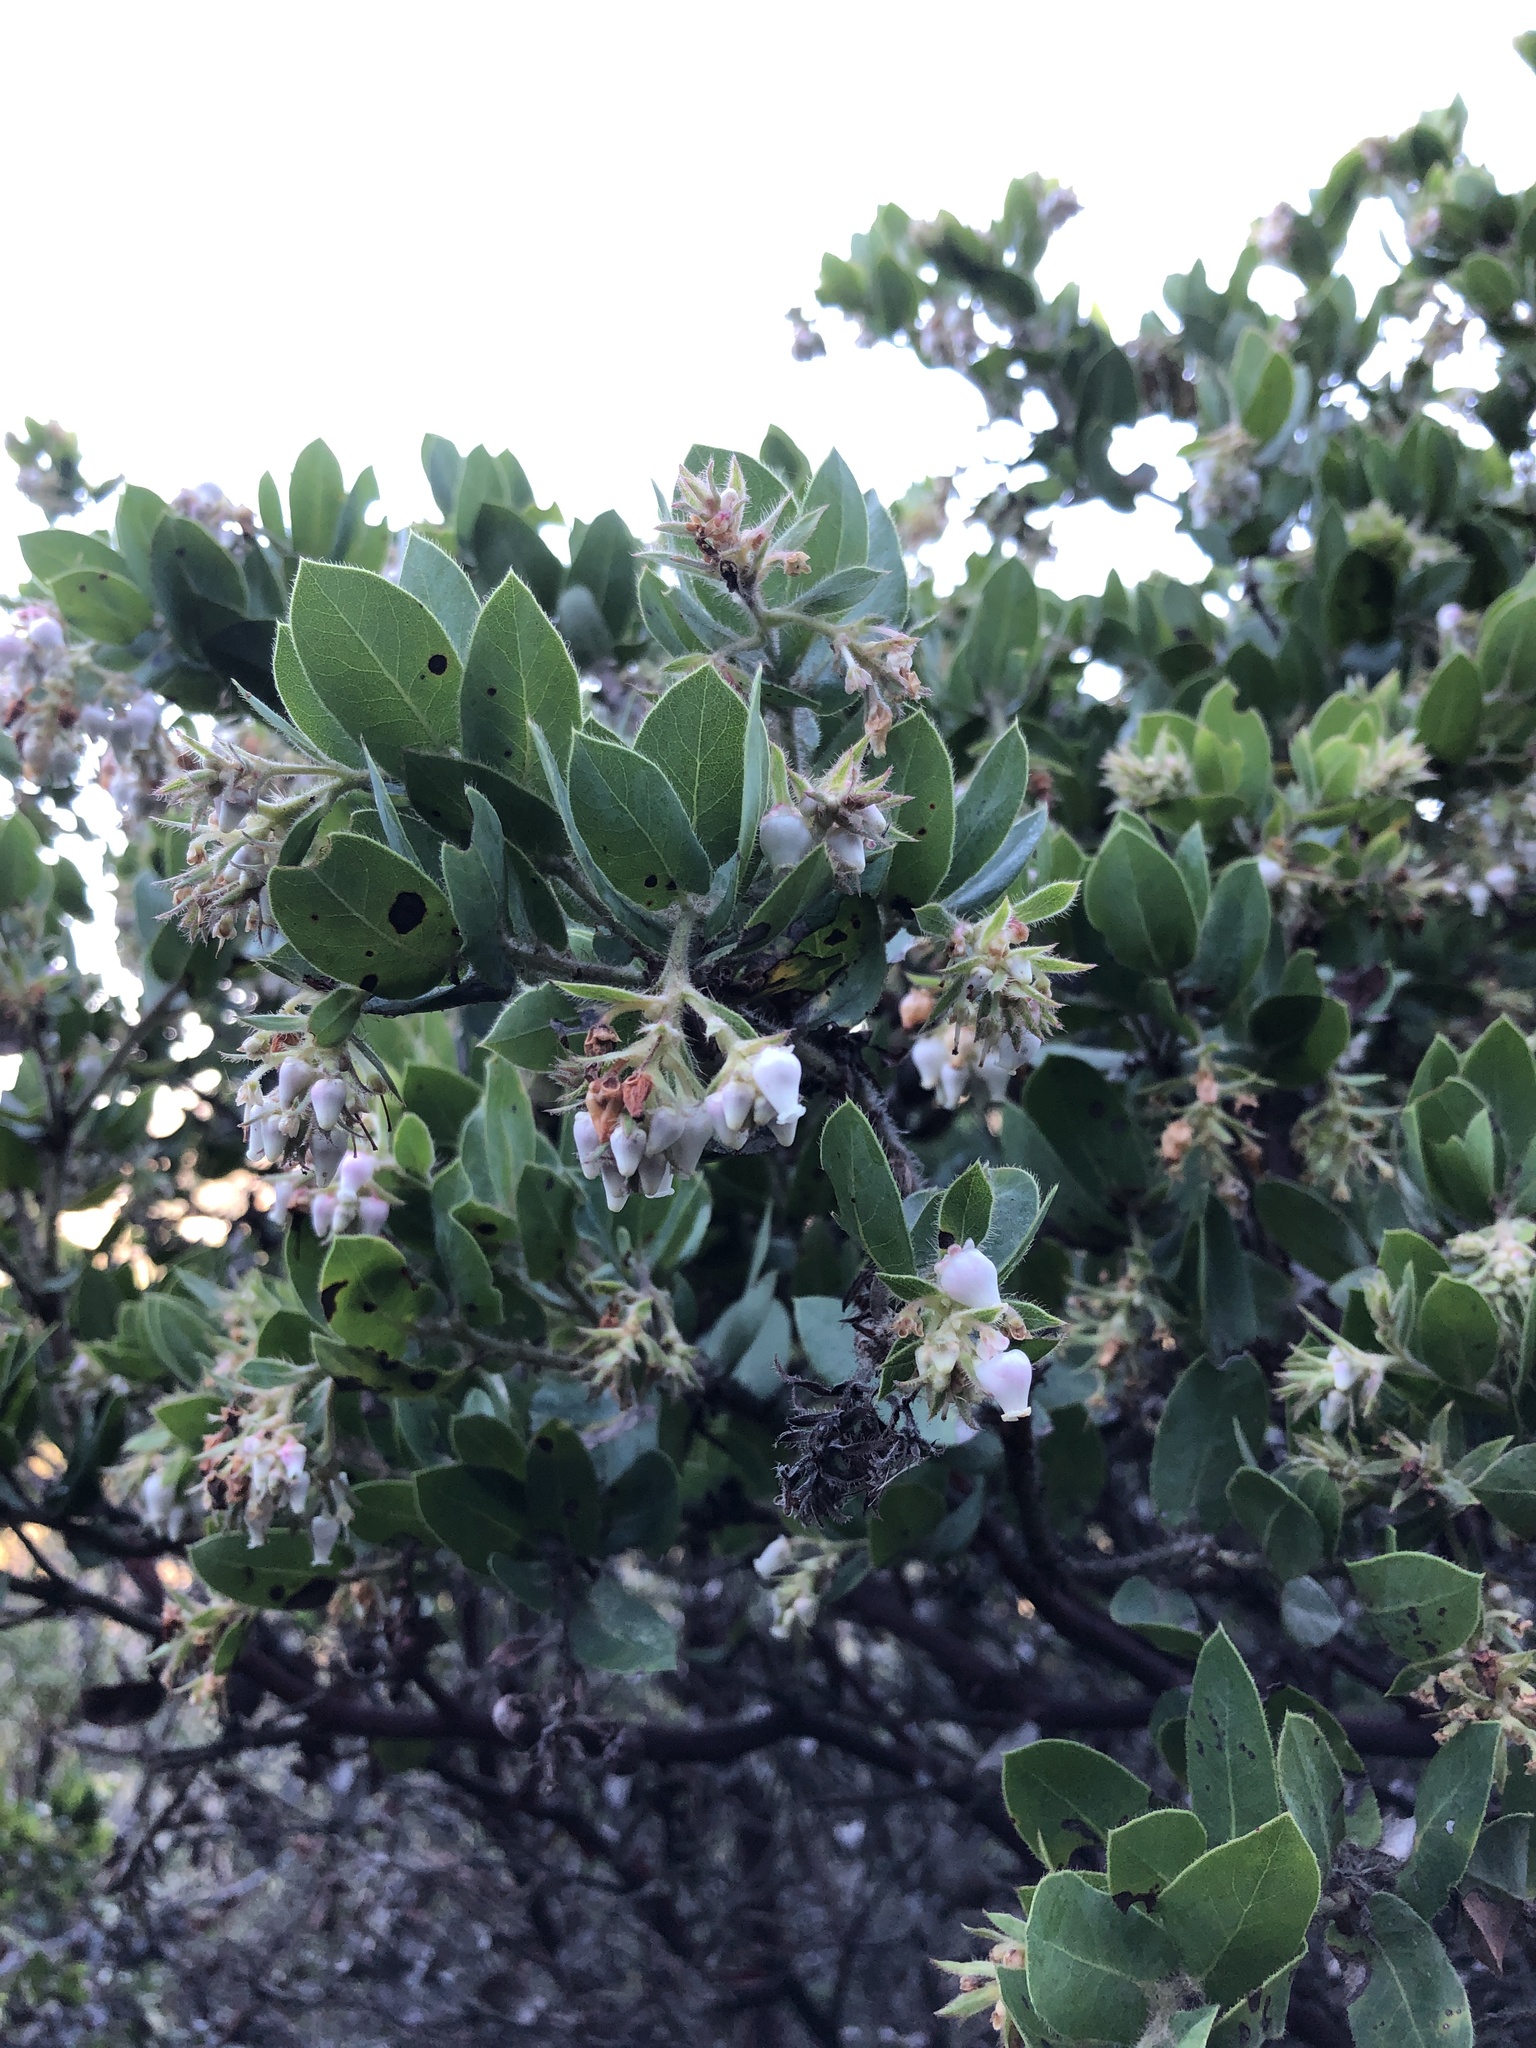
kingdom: Plantae
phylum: Tracheophyta
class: Magnoliopsida
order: Ericales
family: Ericaceae
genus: Arctostaphylos
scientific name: Arctostaphylos montaraensis
